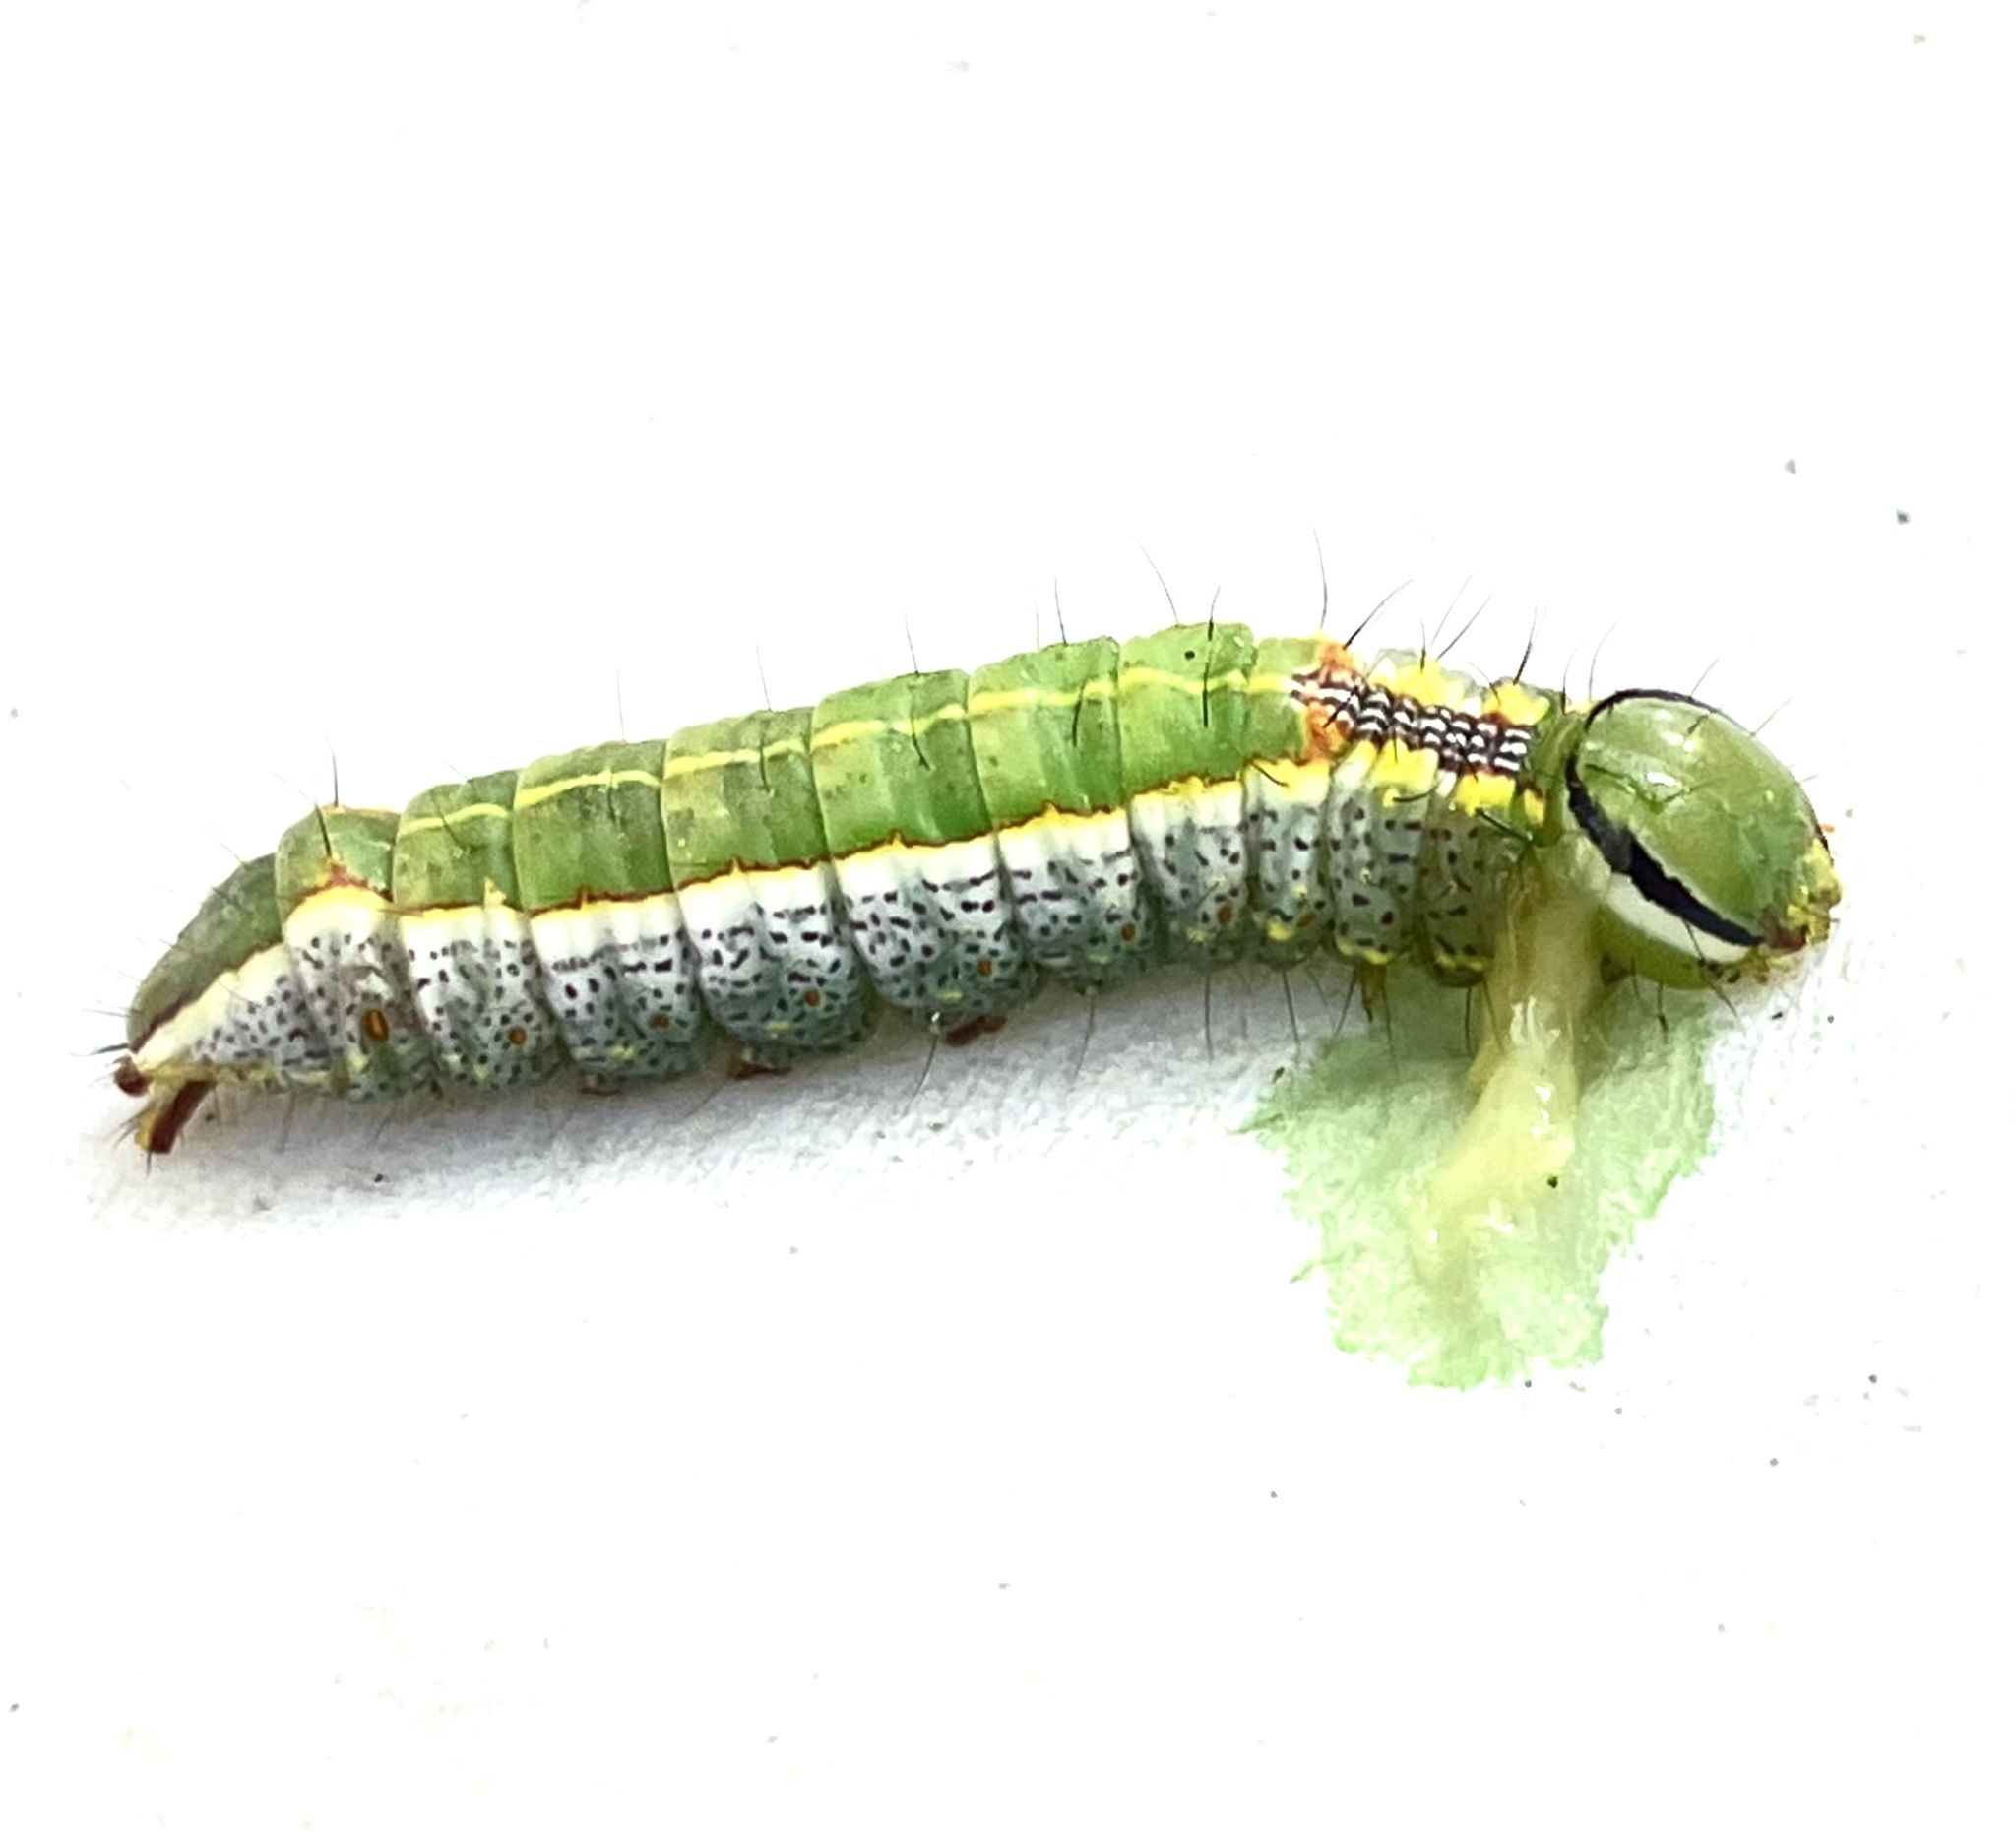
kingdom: Animalia
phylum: Arthropoda
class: Insecta
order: Lepidoptera
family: Notodontidae
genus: Lochmaeus
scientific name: Lochmaeus manteo
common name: Variable oakleaf caterpillar moth
